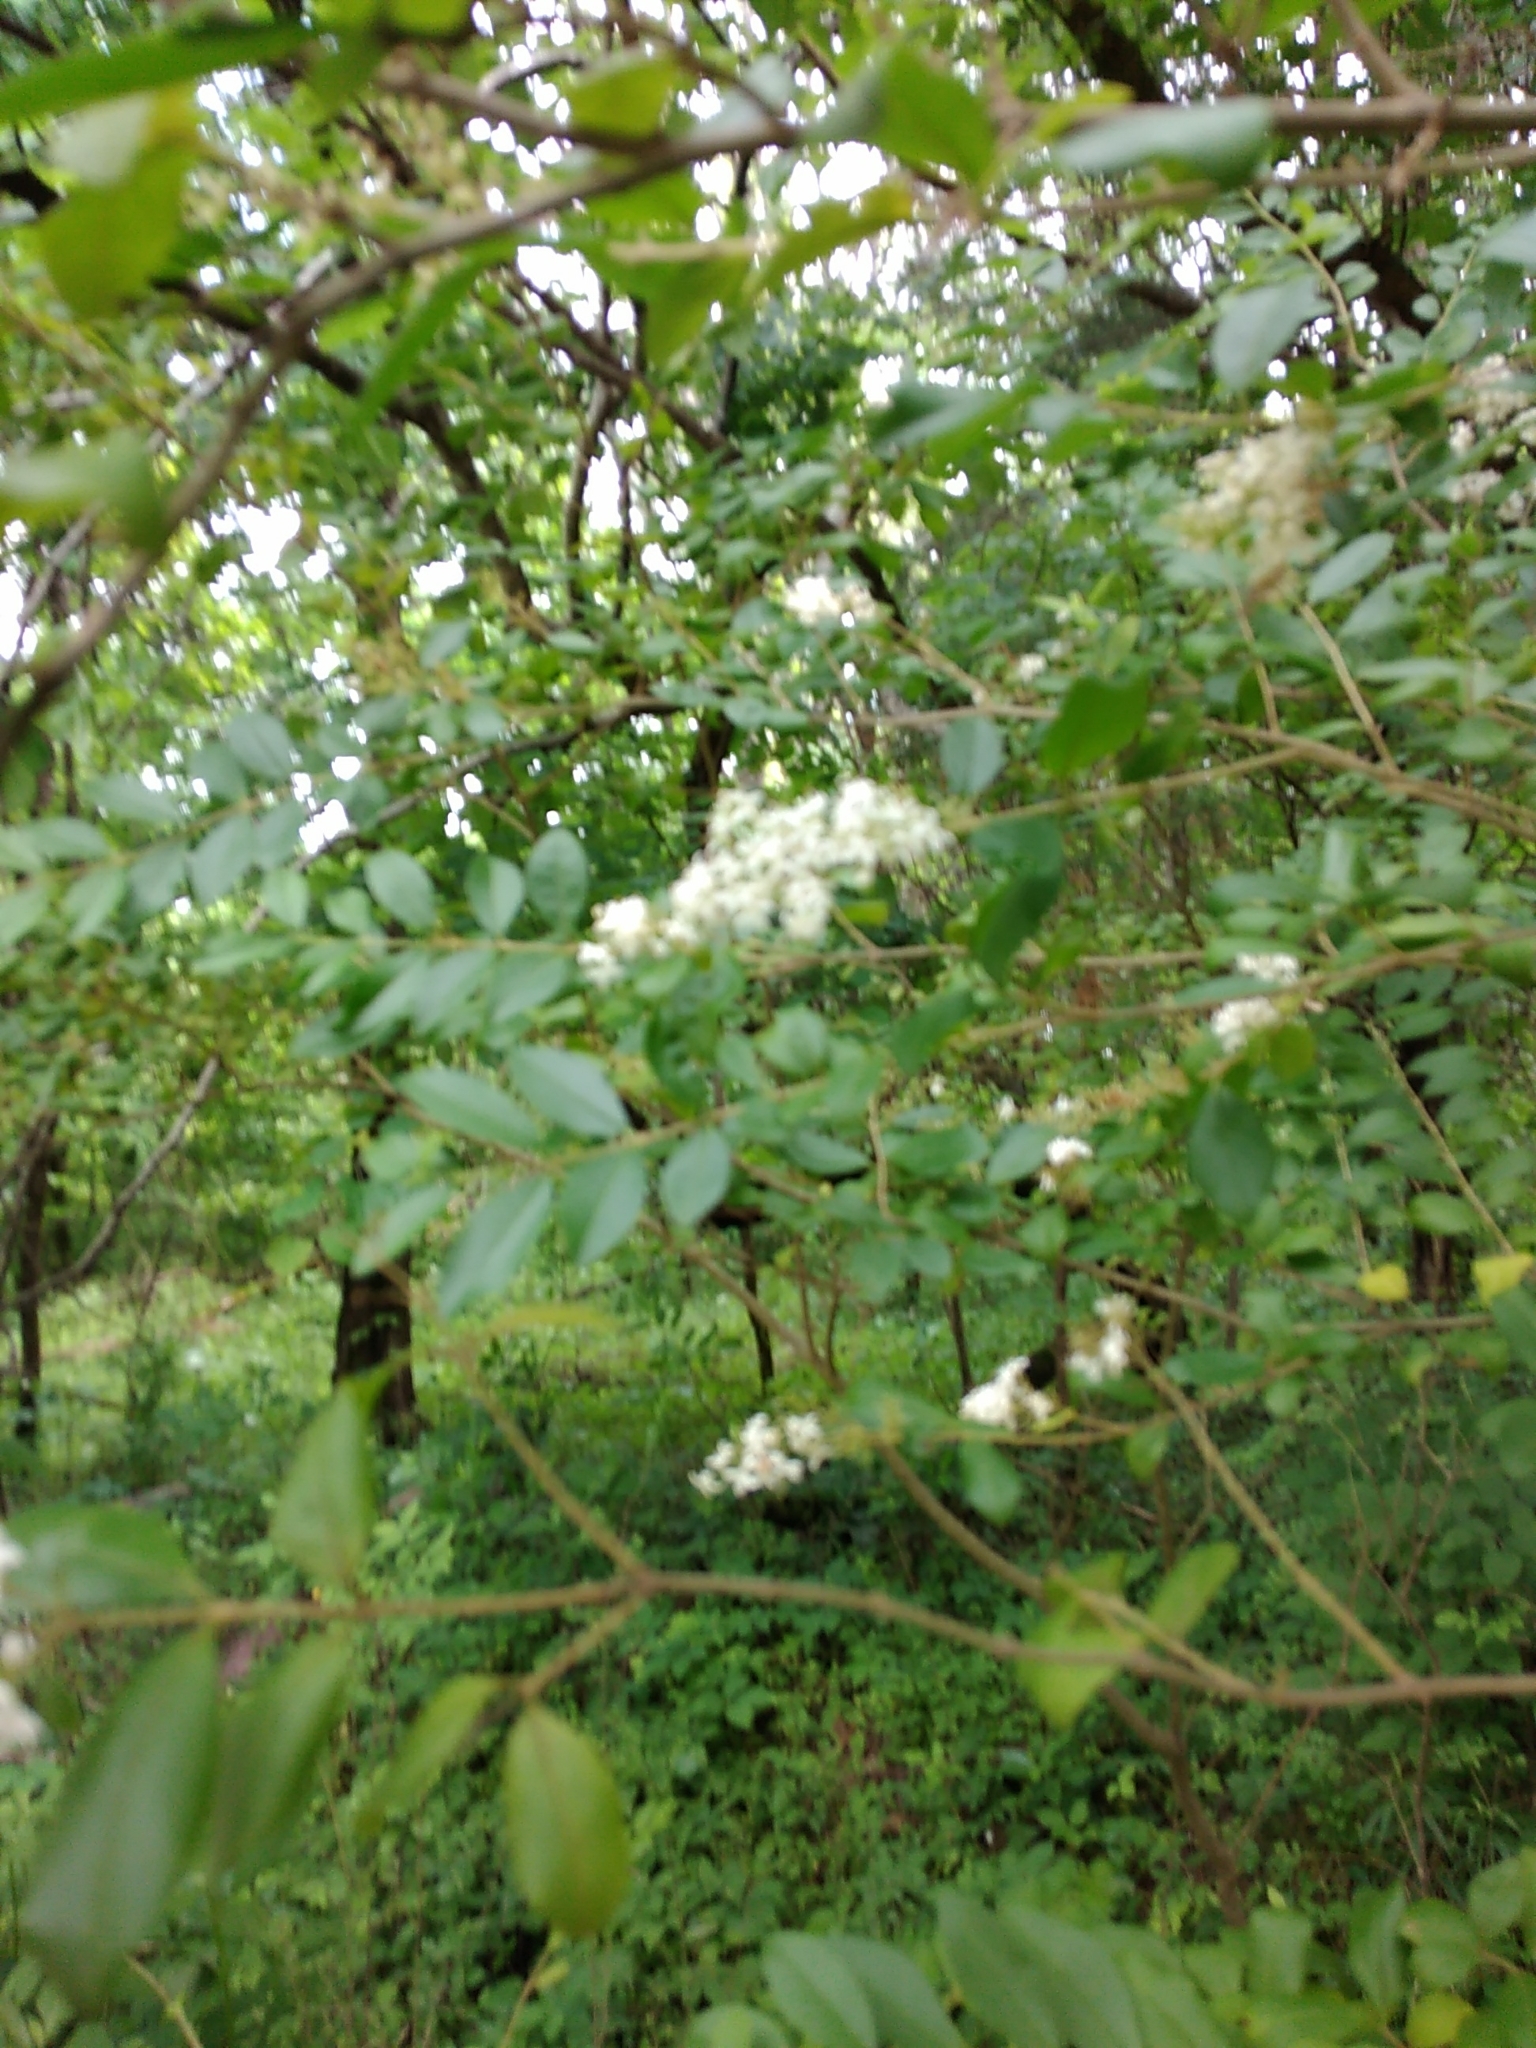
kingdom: Plantae
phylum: Tracheophyta
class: Magnoliopsida
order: Lamiales
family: Oleaceae
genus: Ligustrum
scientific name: Ligustrum sinense
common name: Chinese privet
